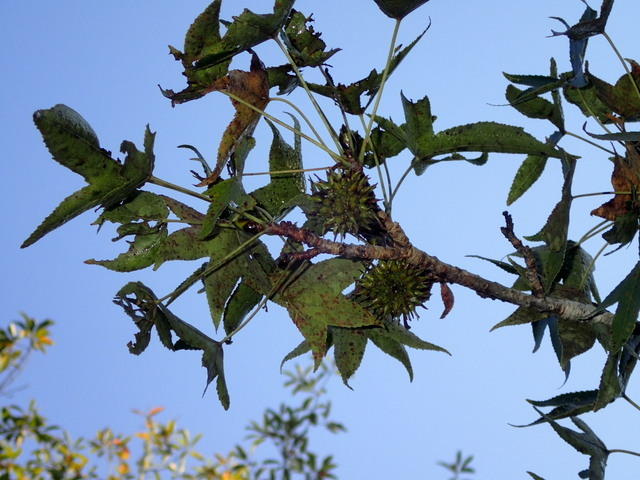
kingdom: Plantae
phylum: Tracheophyta
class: Magnoliopsida
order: Saxifragales
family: Altingiaceae
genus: Liquidambar
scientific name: Liquidambar styraciflua
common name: Sweet gum
